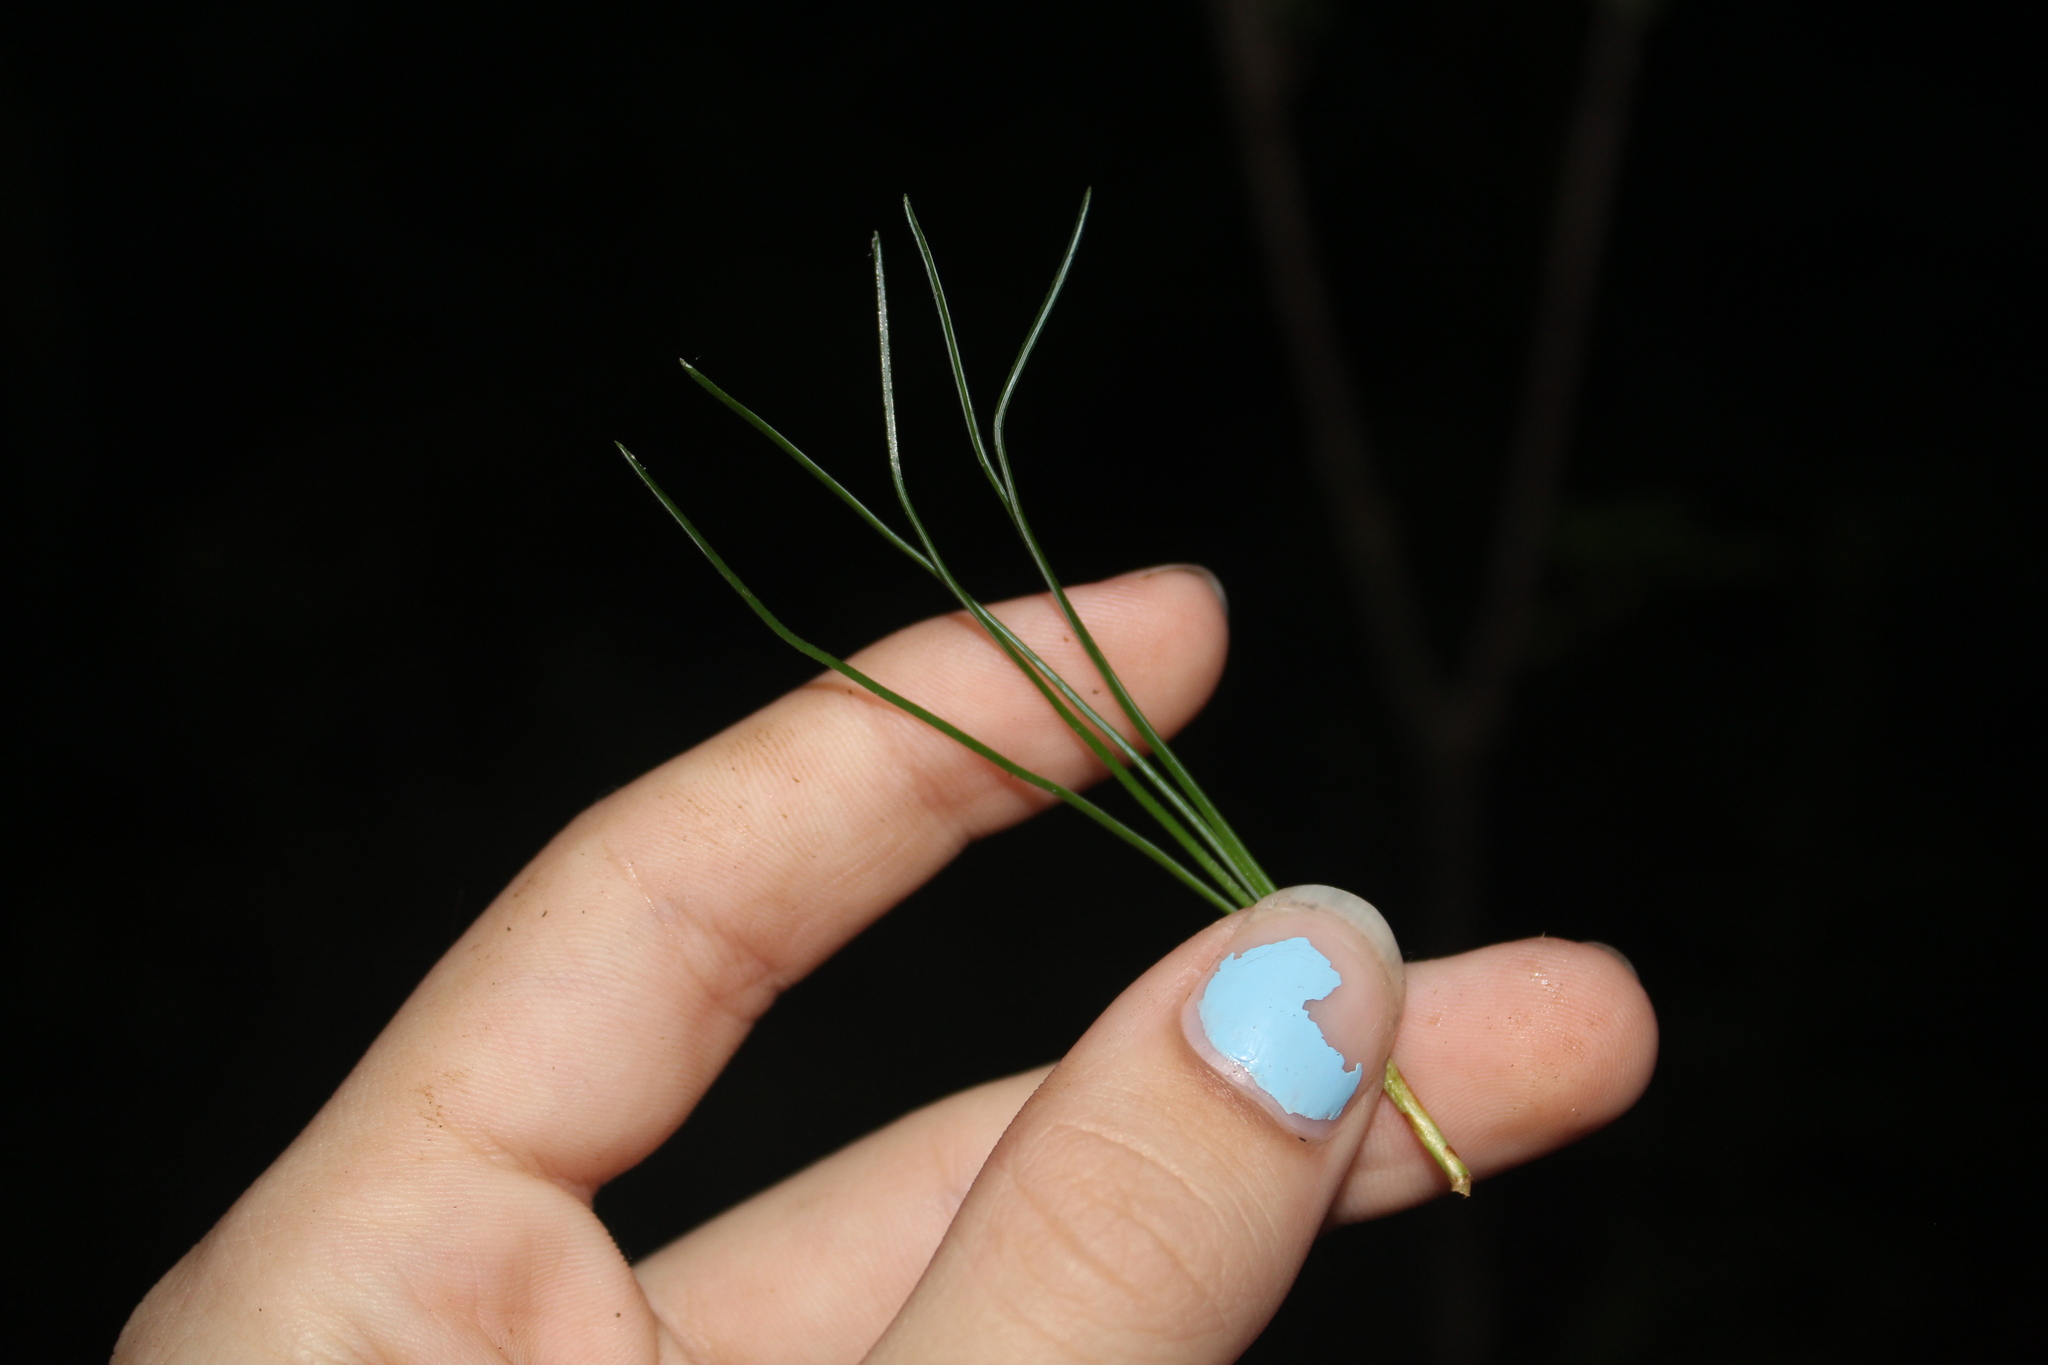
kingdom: Plantae
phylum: Tracheophyta
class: Pinopsida
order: Pinales
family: Pinaceae
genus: Pinus
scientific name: Pinus strobus
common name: Weymouth pine
